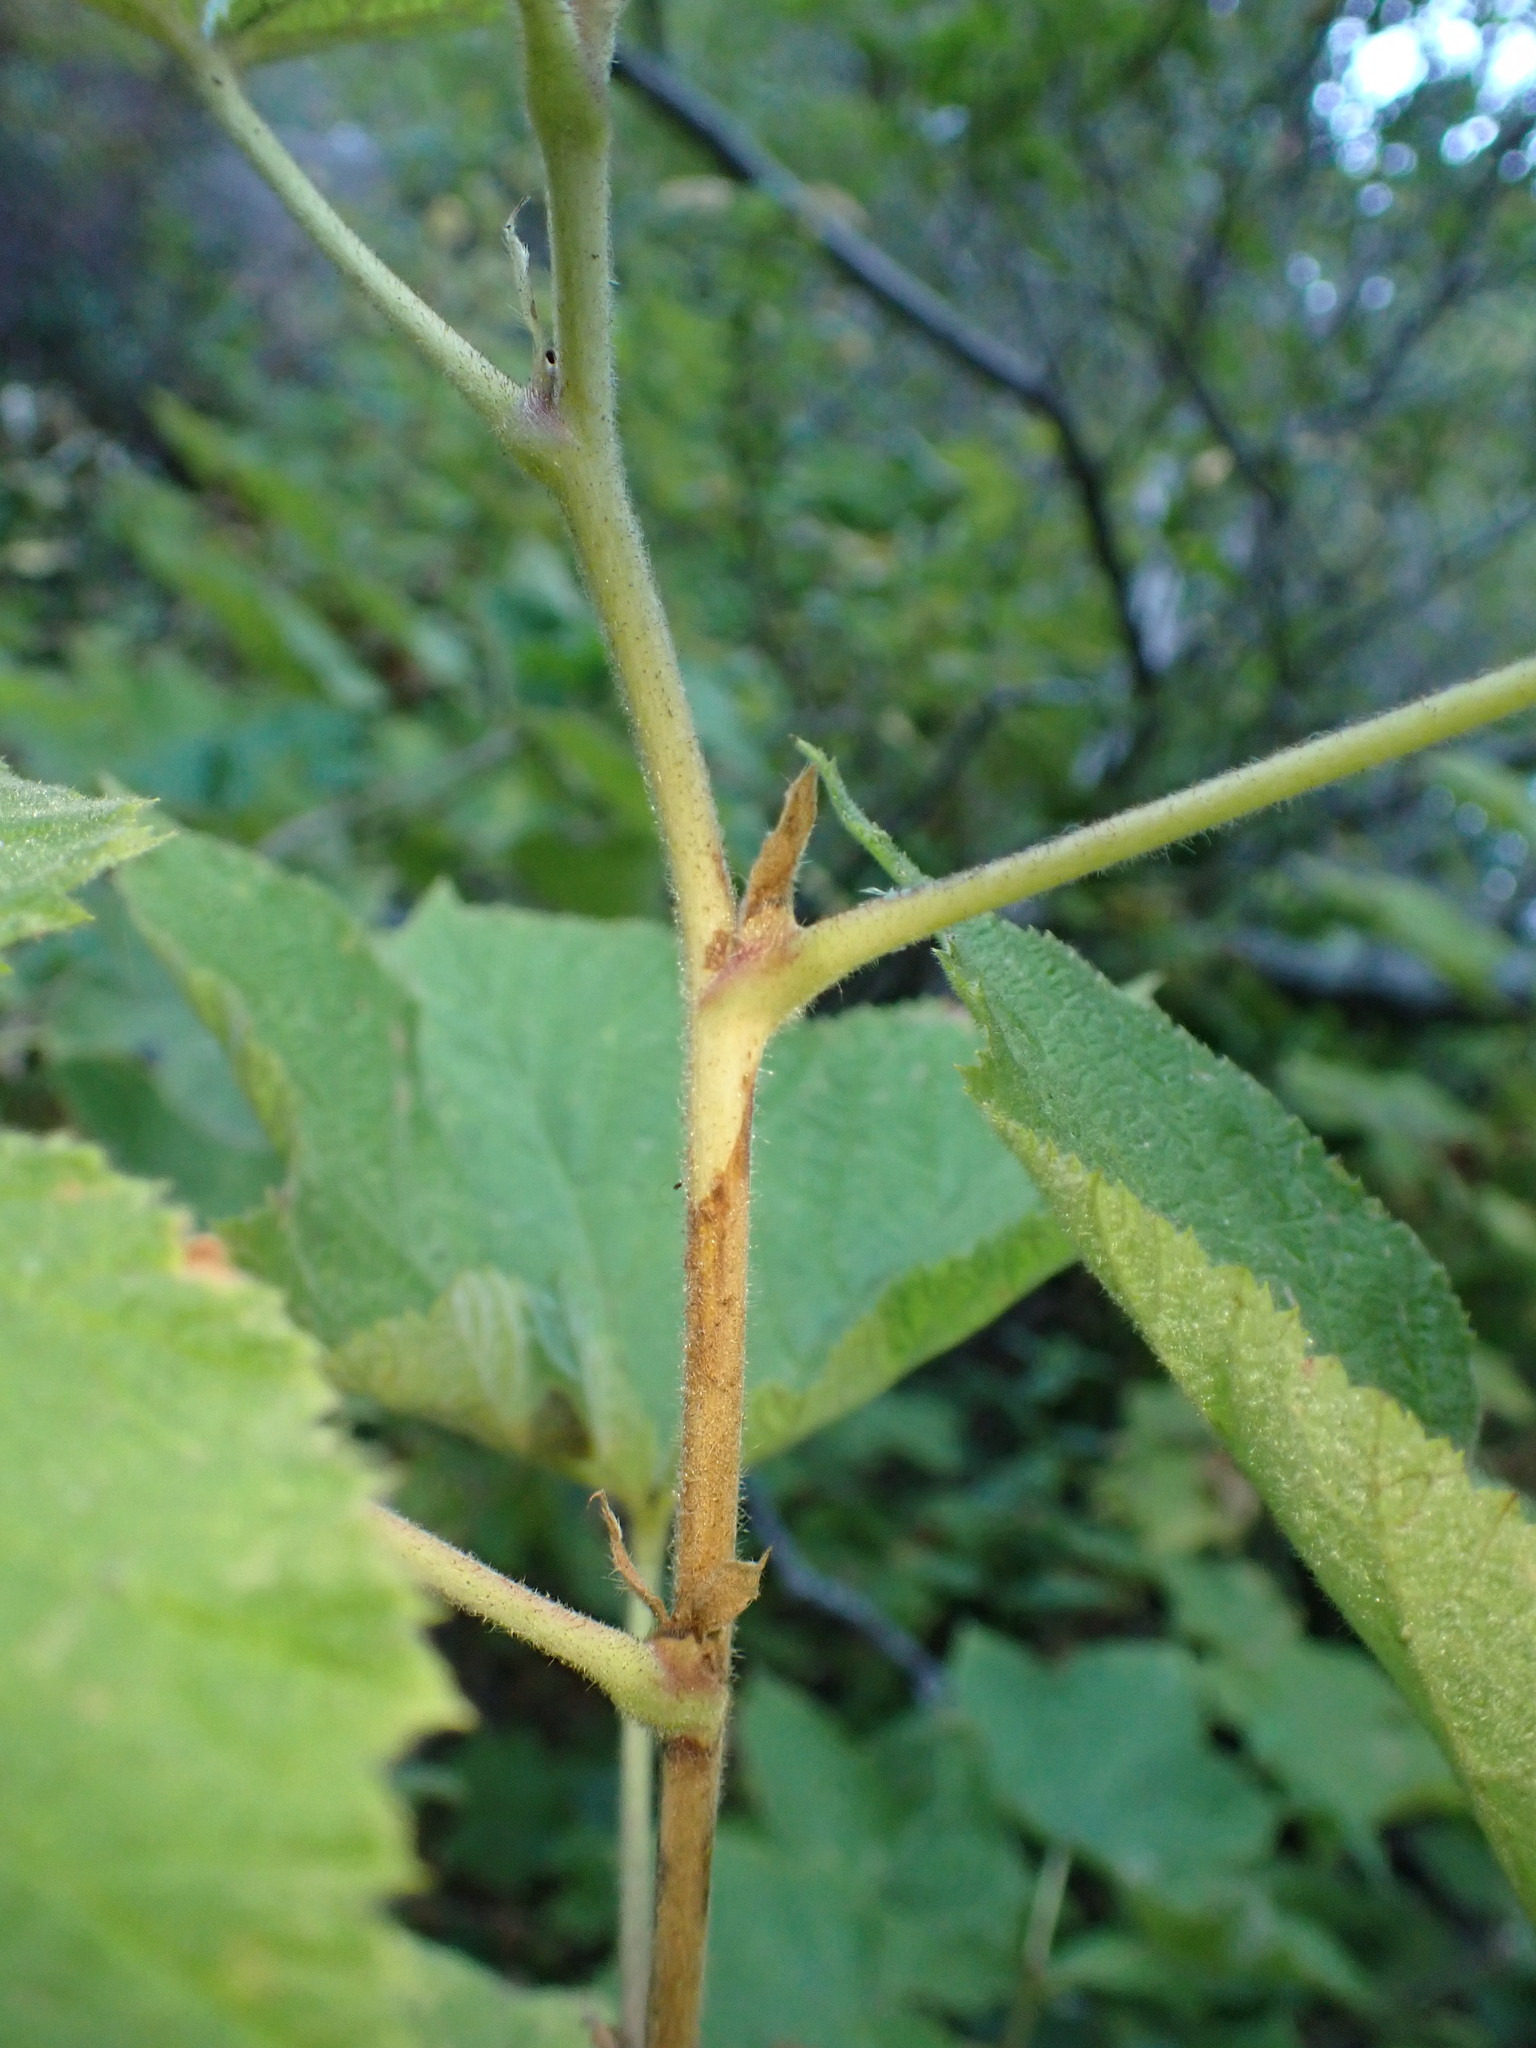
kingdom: Plantae
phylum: Tracheophyta
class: Magnoliopsida
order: Rosales
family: Rosaceae
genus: Rubus
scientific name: Rubus parviflorus
